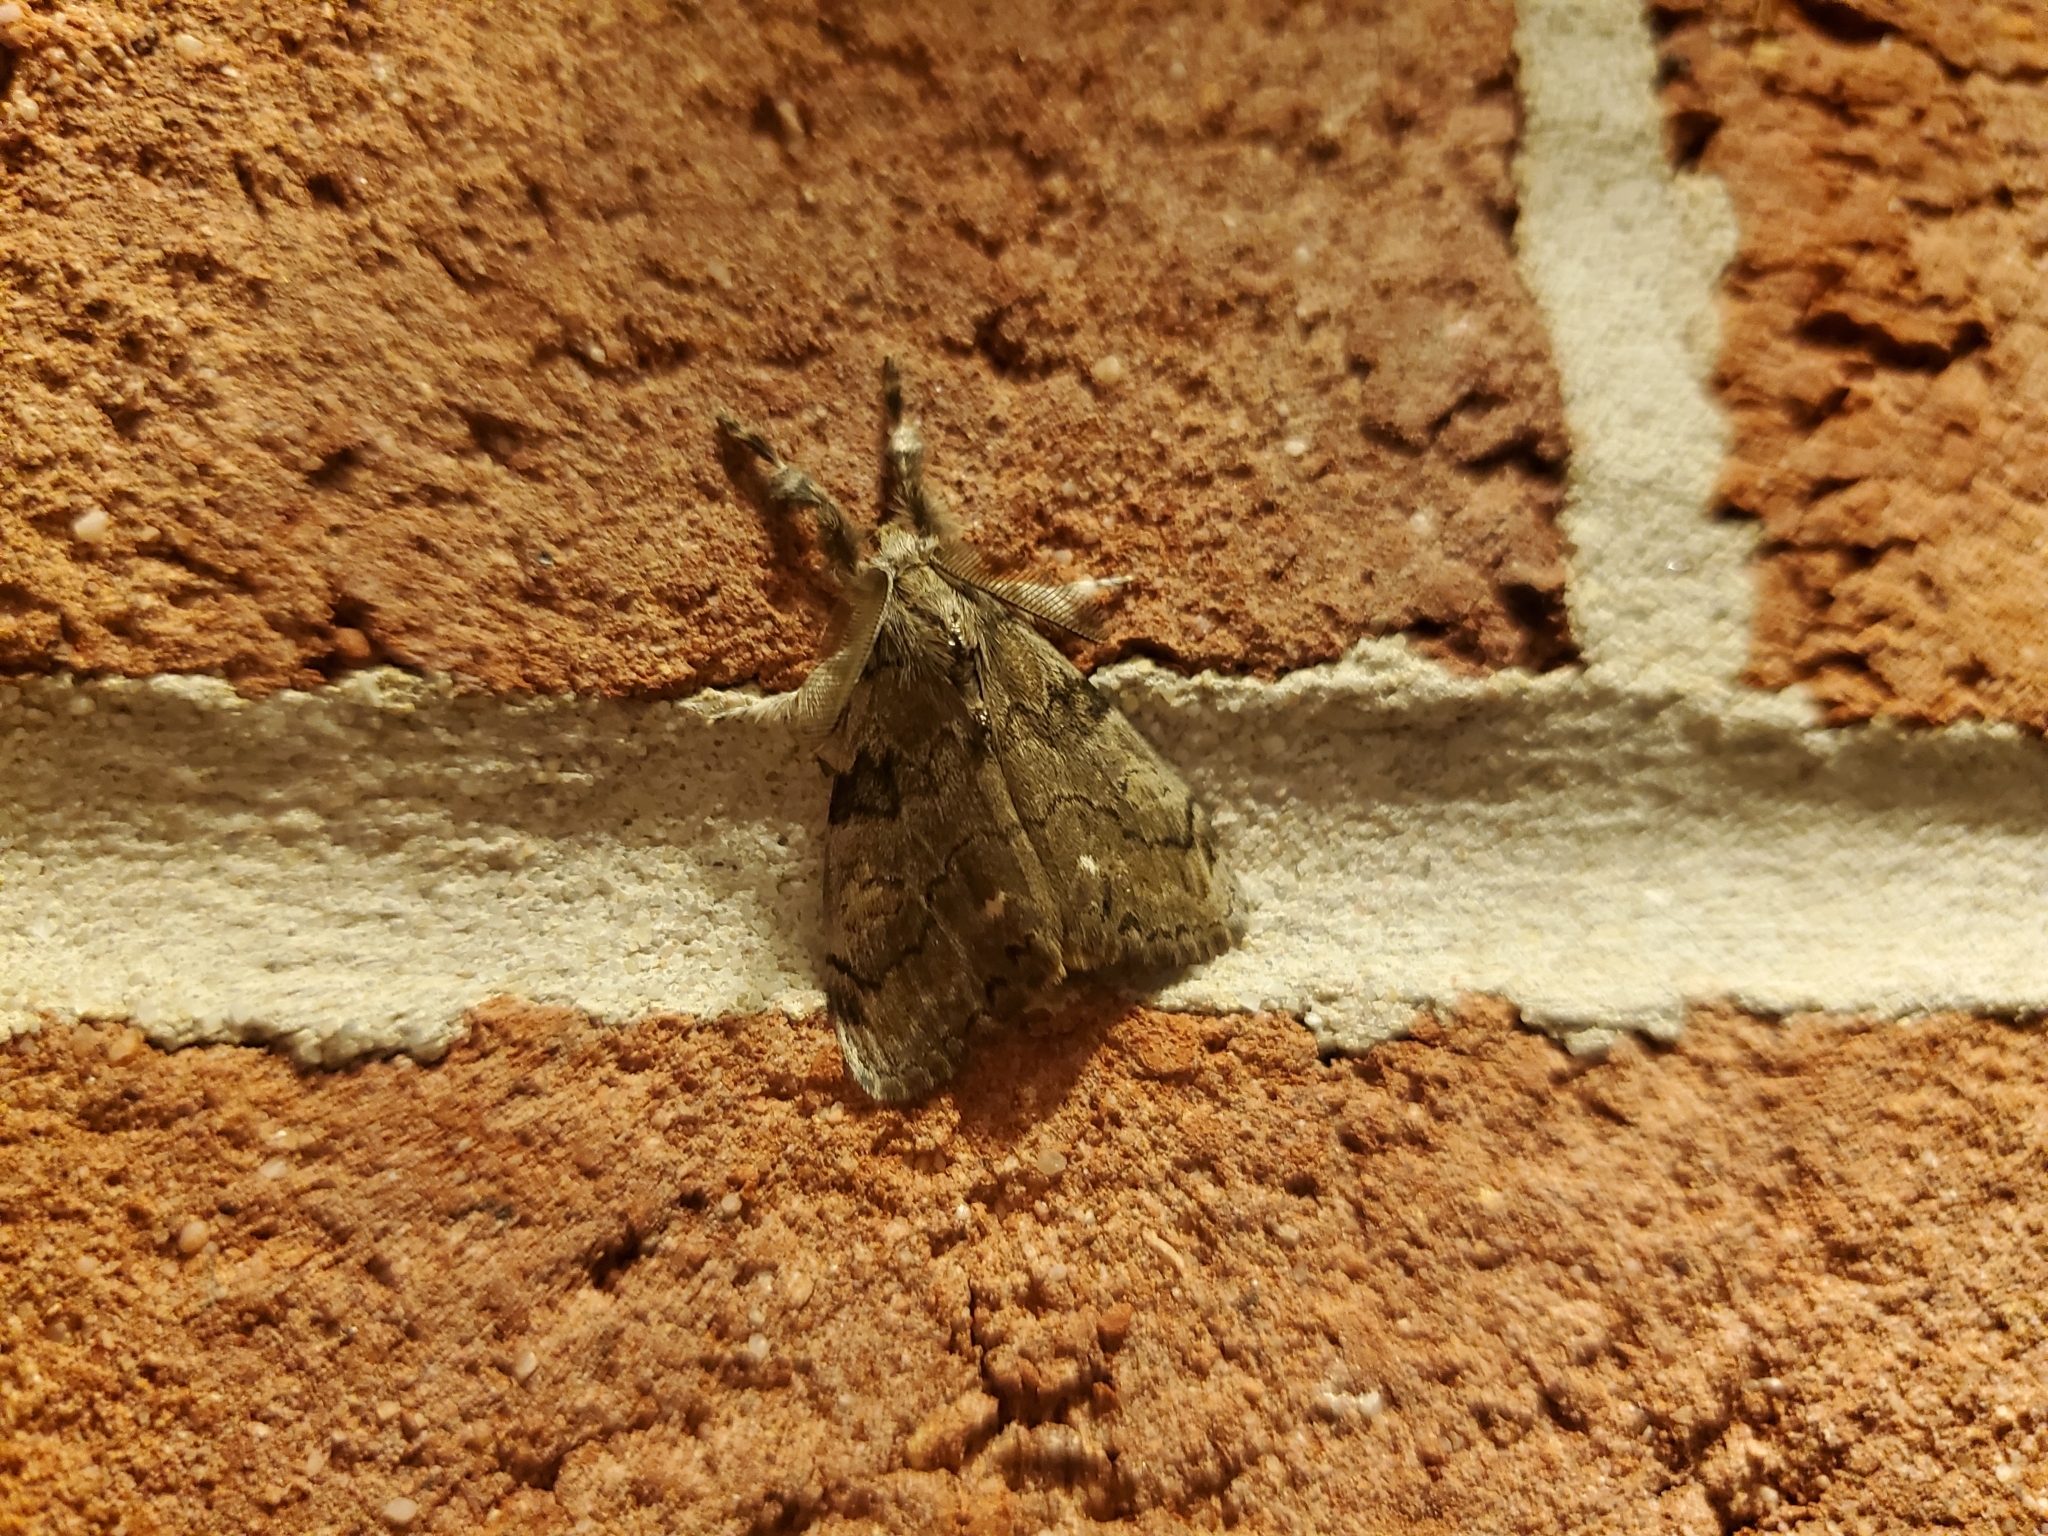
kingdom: Animalia
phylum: Arthropoda
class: Insecta
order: Lepidoptera
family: Erebidae
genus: Orgyia
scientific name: Orgyia leucostigma
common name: White-marked tussock moth
